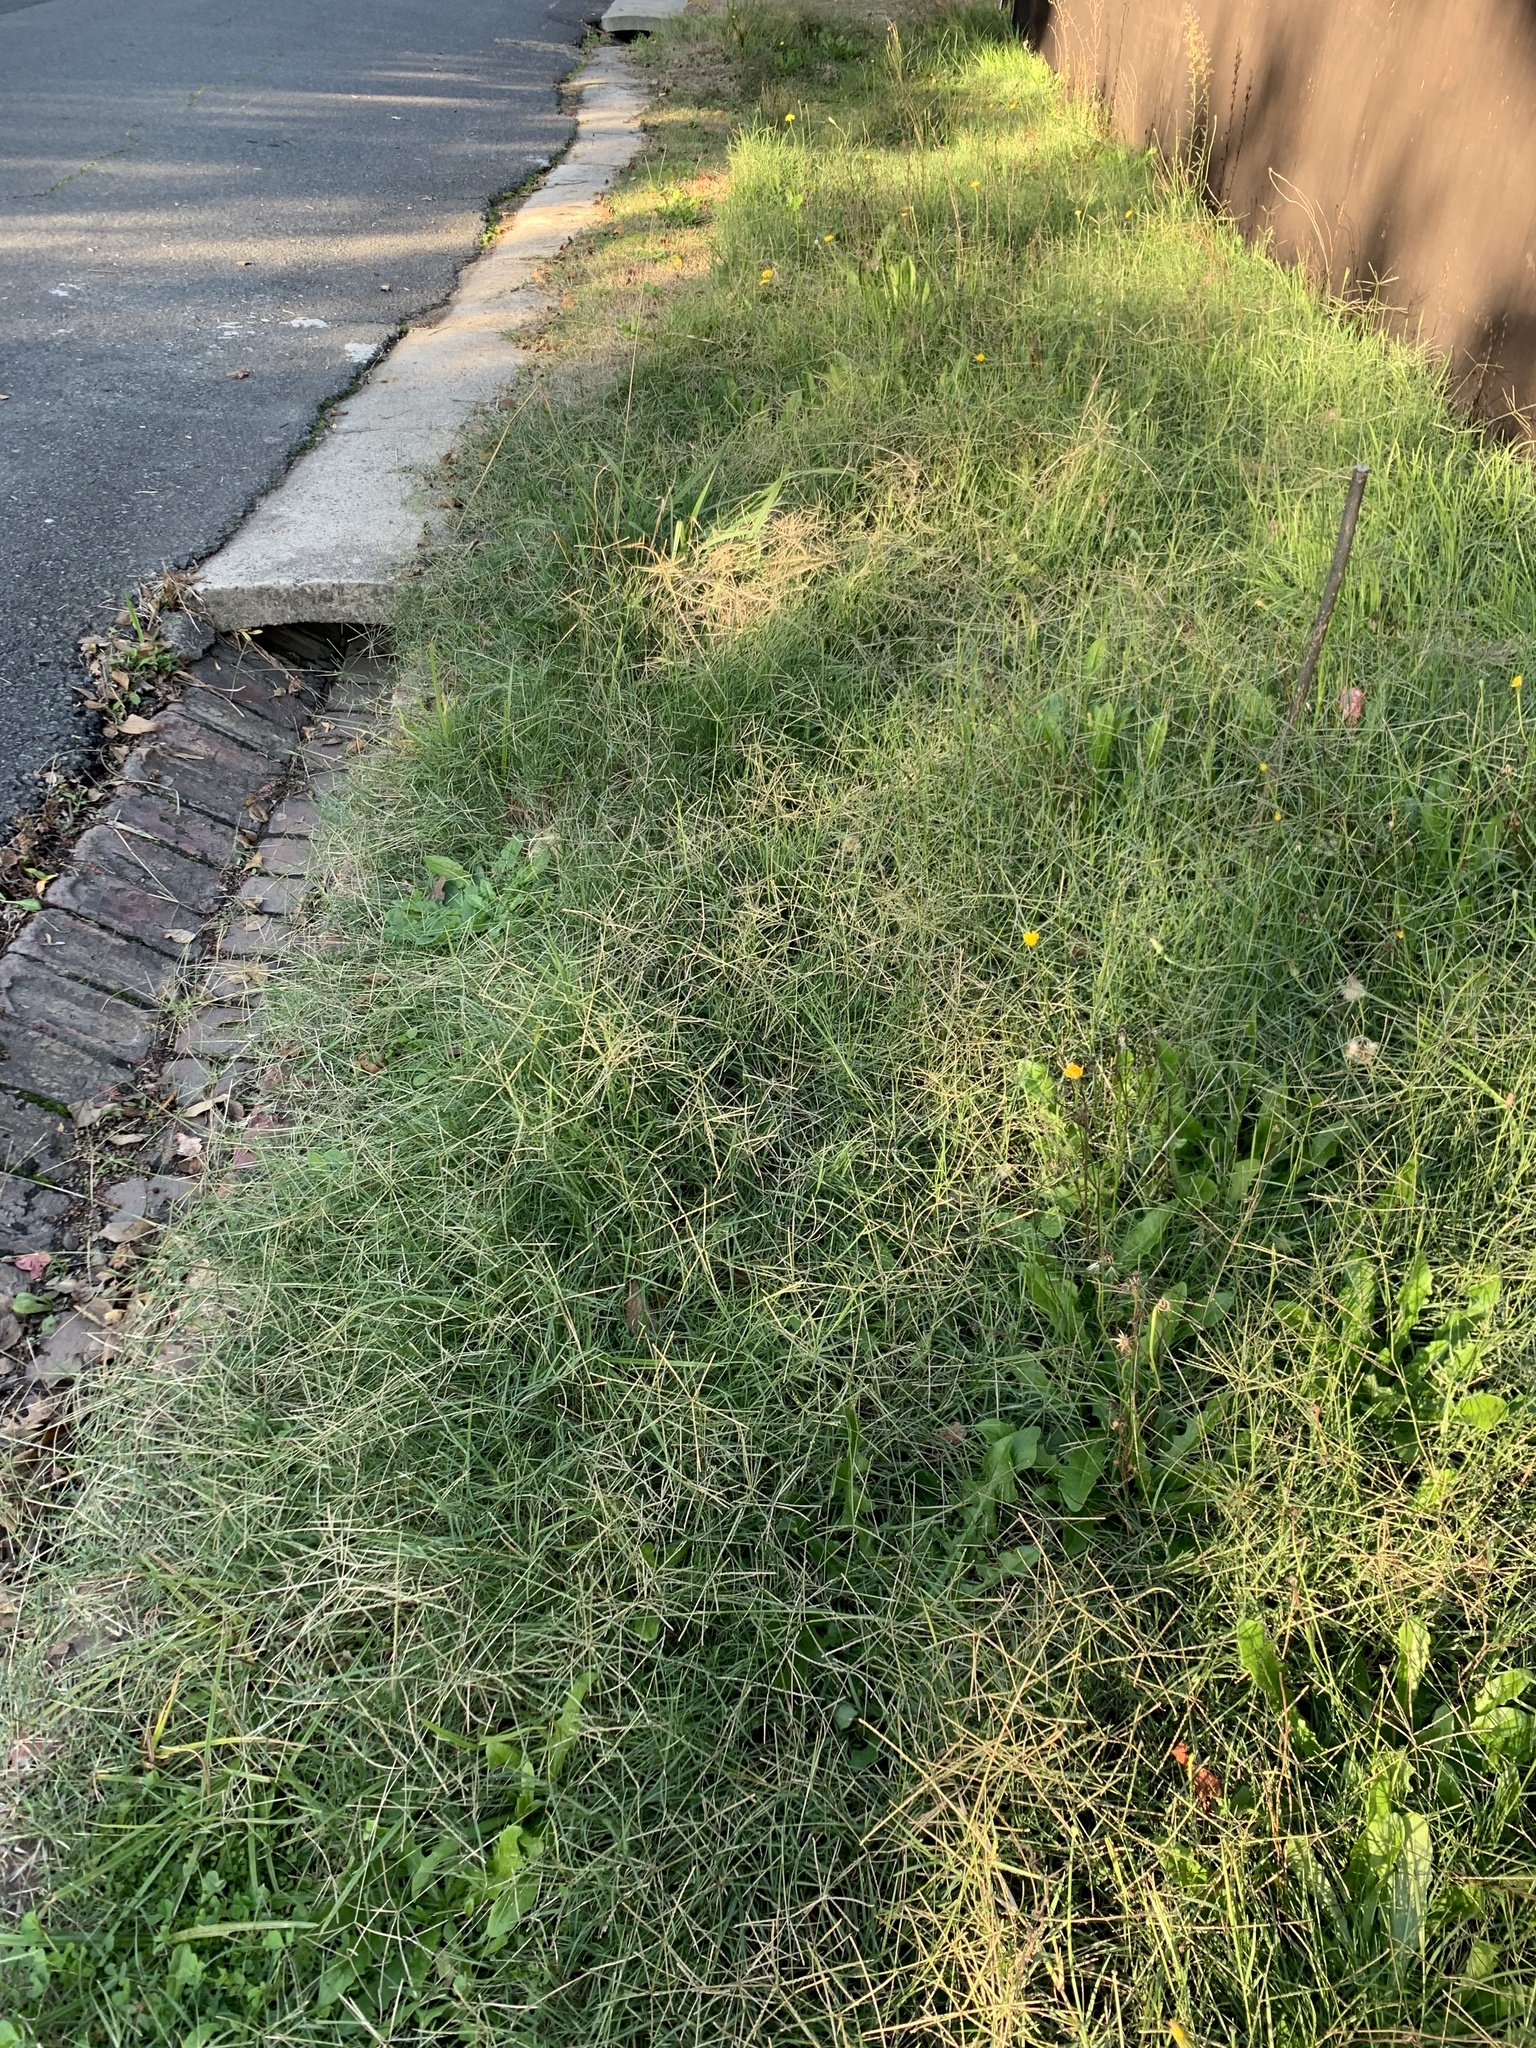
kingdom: Plantae
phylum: Tracheophyta
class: Liliopsida
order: Poales
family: Poaceae
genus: Cynodon
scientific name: Cynodon dactylon
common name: Bermuda grass
